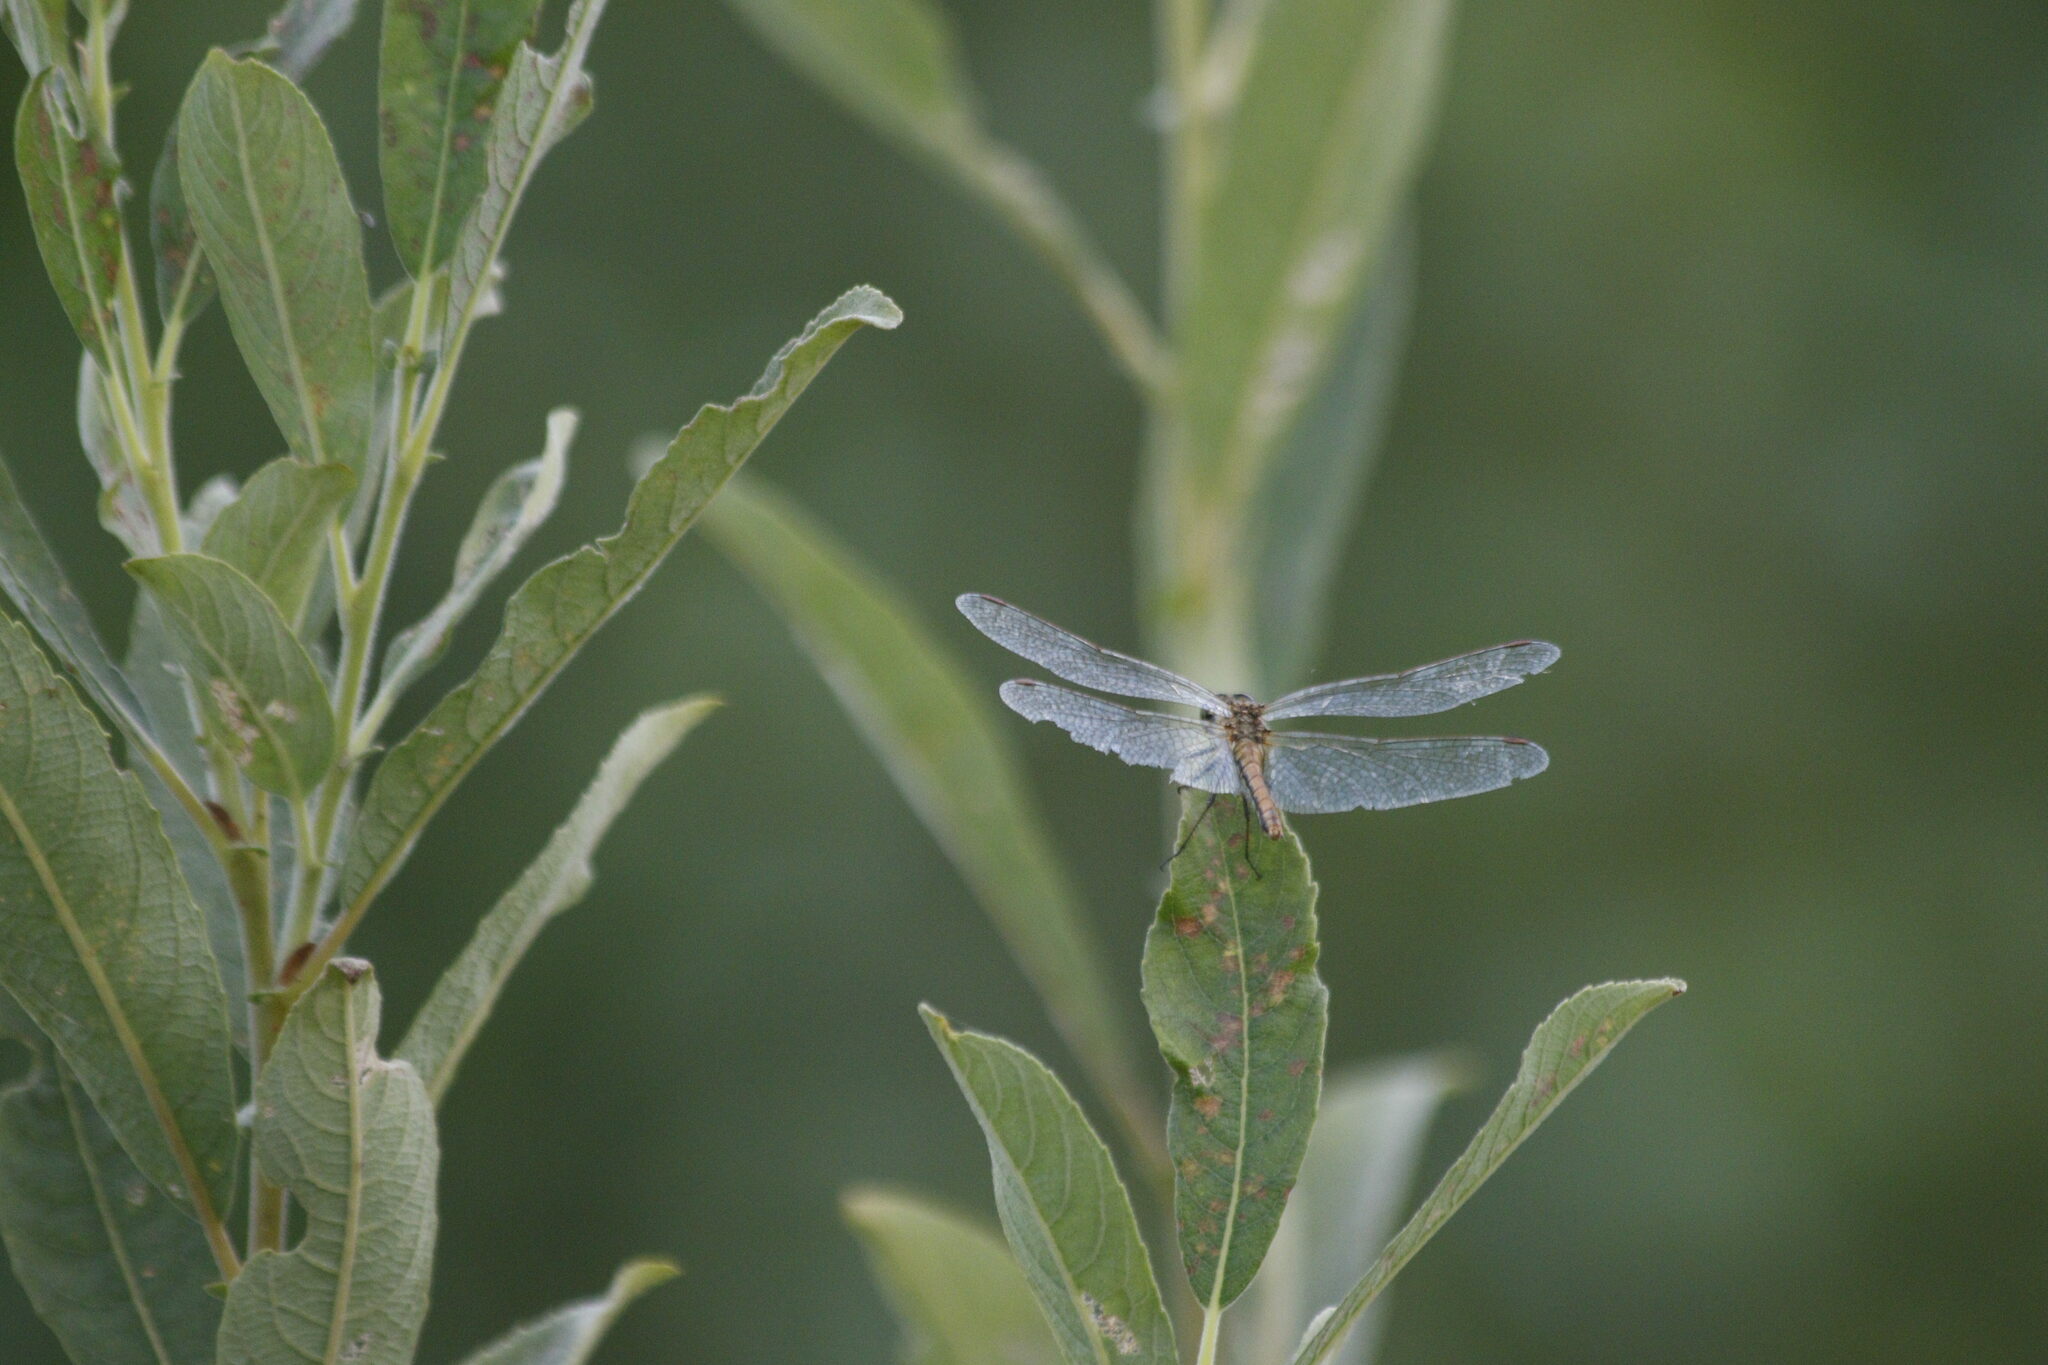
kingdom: Animalia
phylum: Arthropoda
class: Insecta
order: Odonata
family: Libellulidae
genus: Sympetrum
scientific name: Sympetrum flaveolum
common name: Yellow-winged darter
